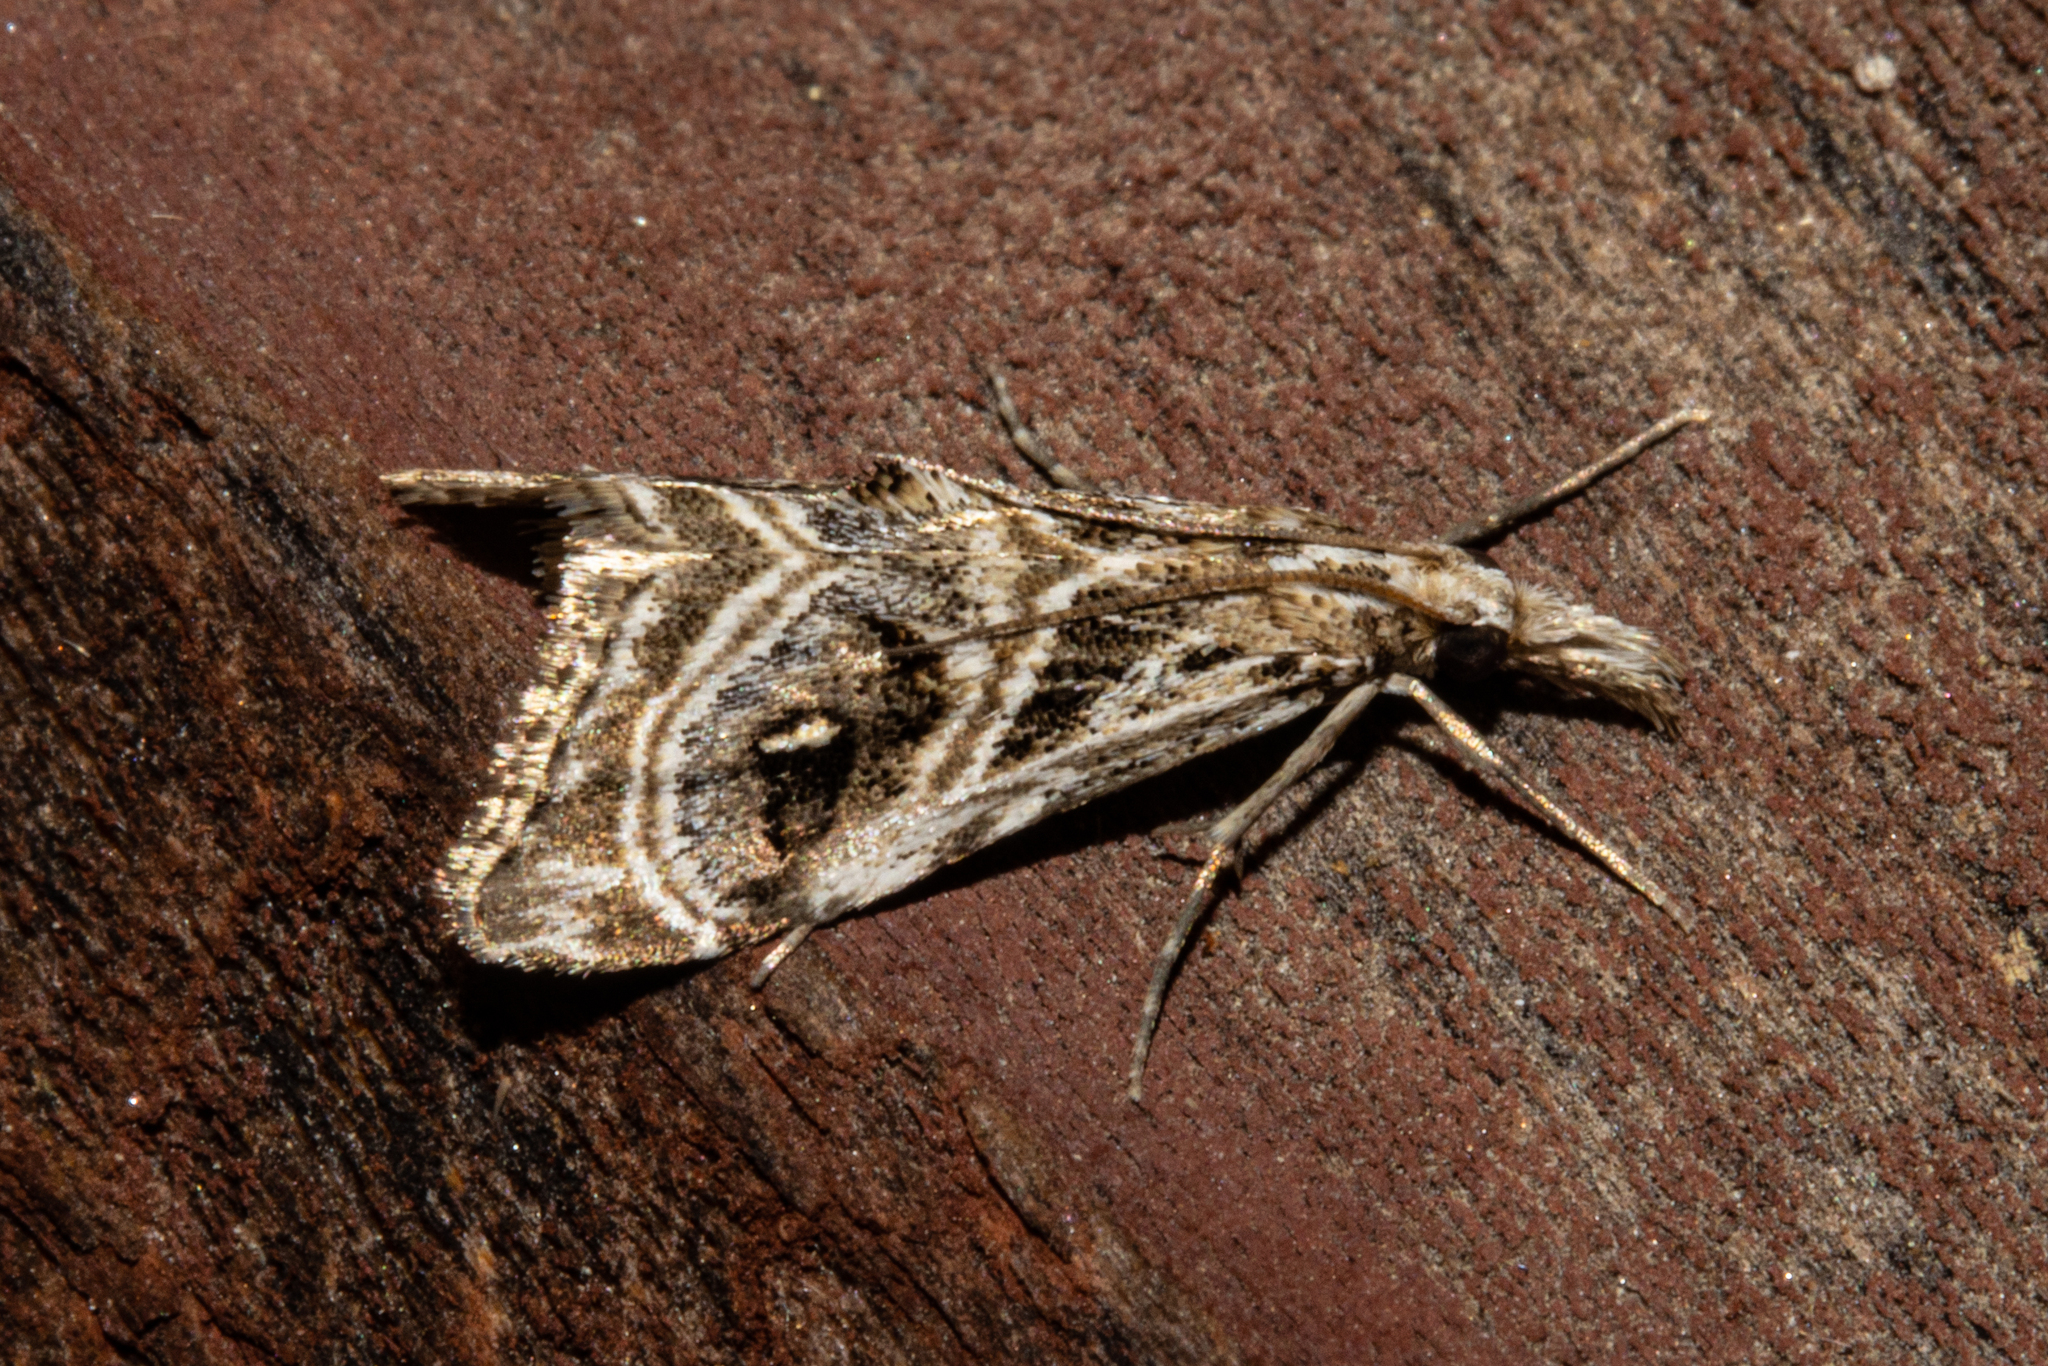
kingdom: Animalia
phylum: Arthropoda
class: Insecta
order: Lepidoptera
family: Crambidae
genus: Gadira
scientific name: Gadira acerella
